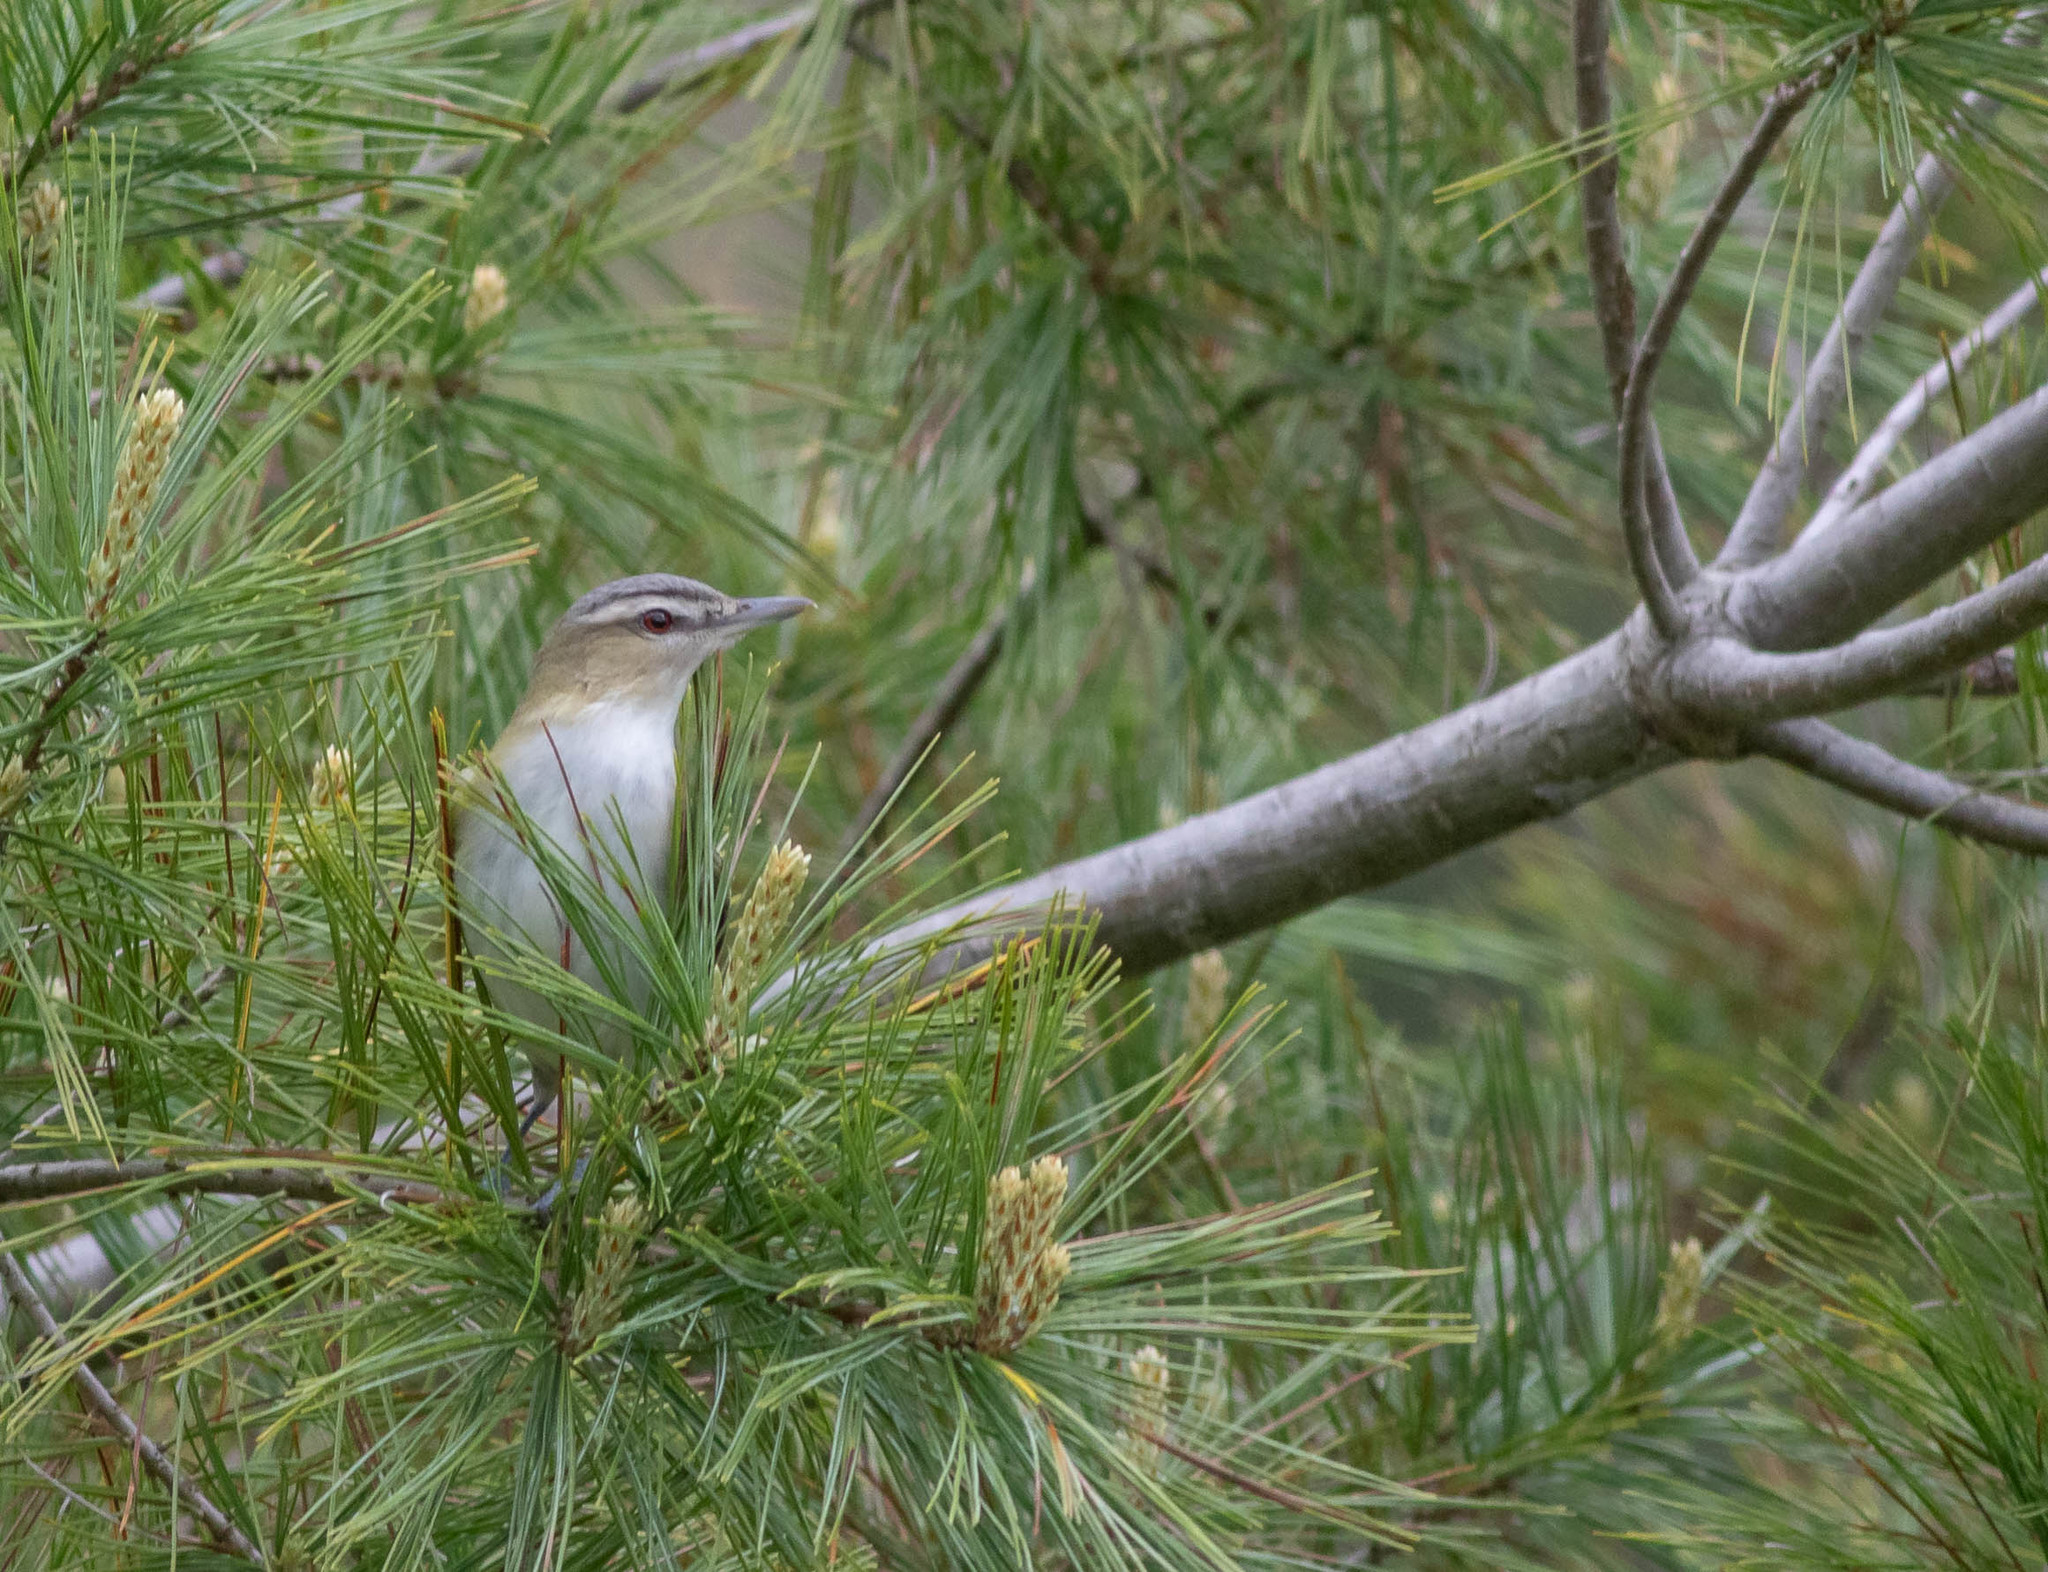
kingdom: Animalia
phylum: Chordata
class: Aves
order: Passeriformes
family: Vireonidae
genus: Vireo
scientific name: Vireo olivaceus
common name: Red-eyed vireo
